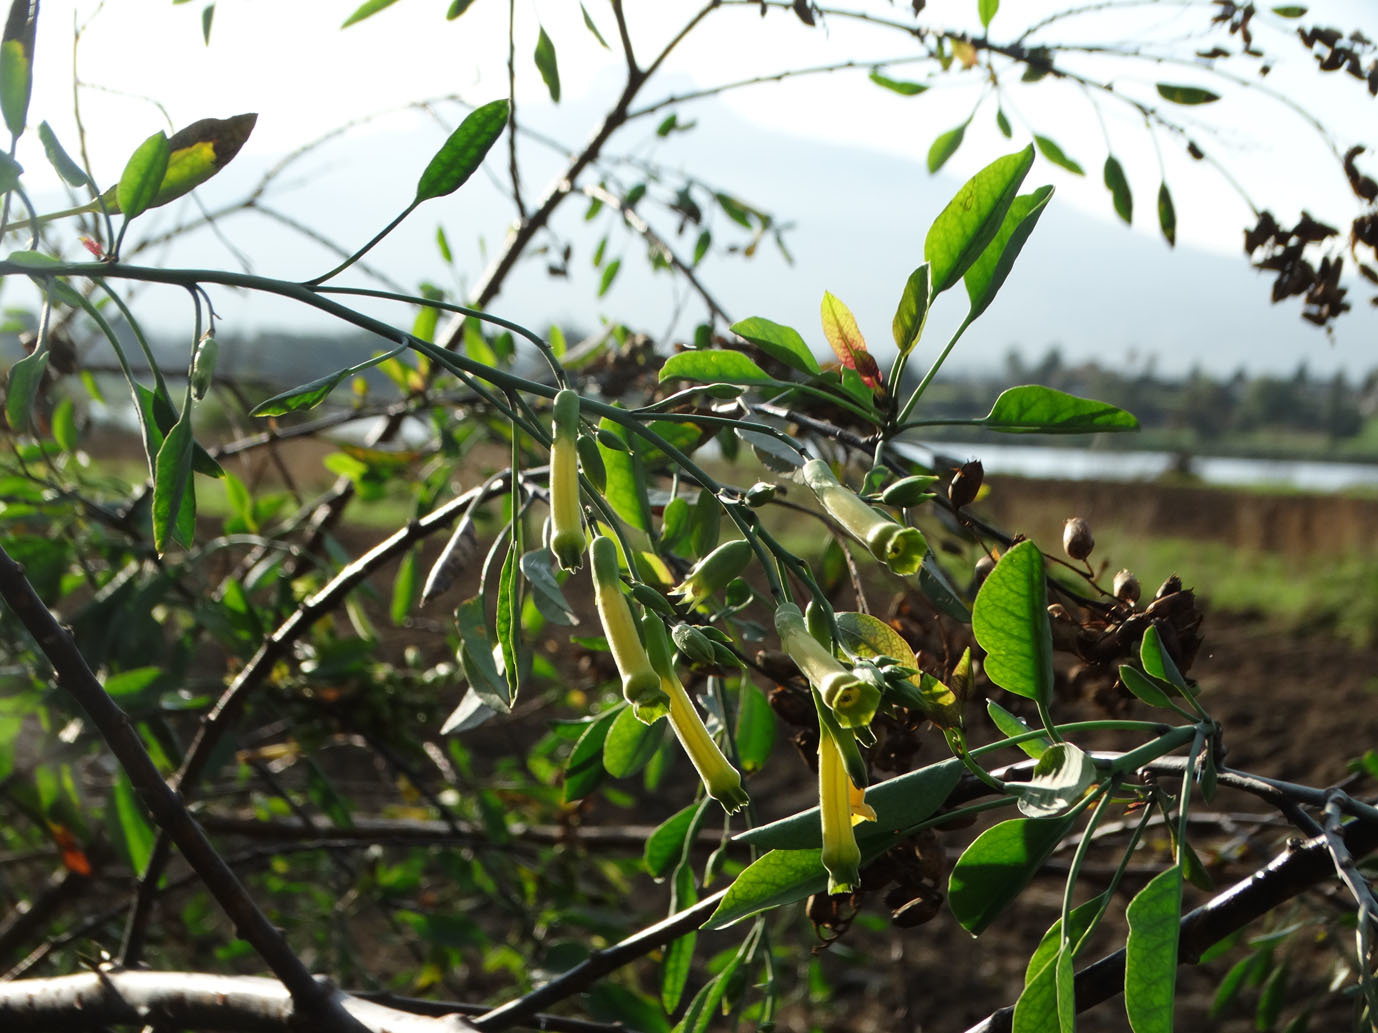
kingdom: Plantae
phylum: Tracheophyta
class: Magnoliopsida
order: Solanales
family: Solanaceae
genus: Nicotiana
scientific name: Nicotiana glauca
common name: Tree tobacco
